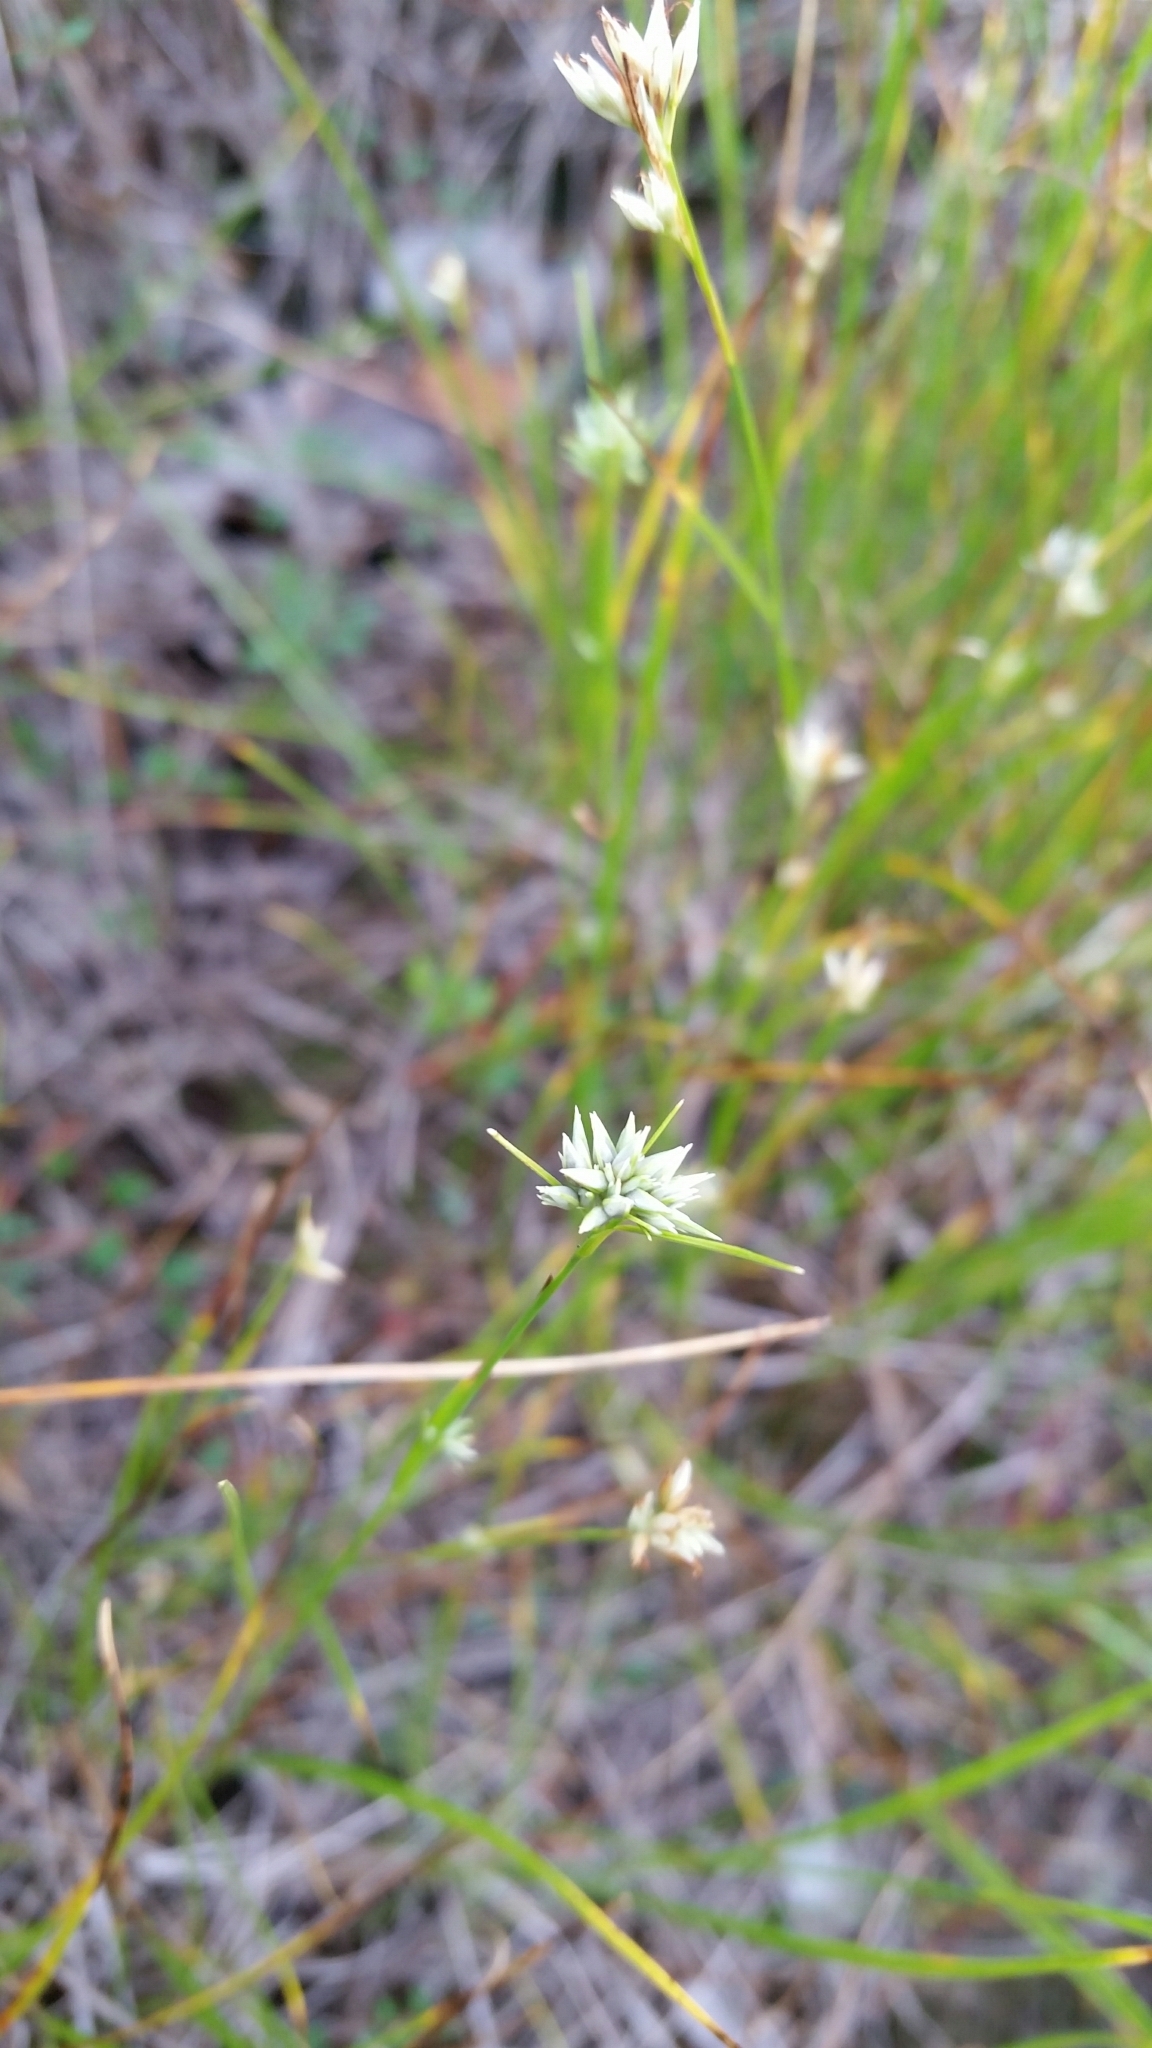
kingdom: Plantae
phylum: Tracheophyta
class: Liliopsida
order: Poales
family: Cyperaceae
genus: Rhynchospora
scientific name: Rhynchospora alba
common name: White beak-sedge
